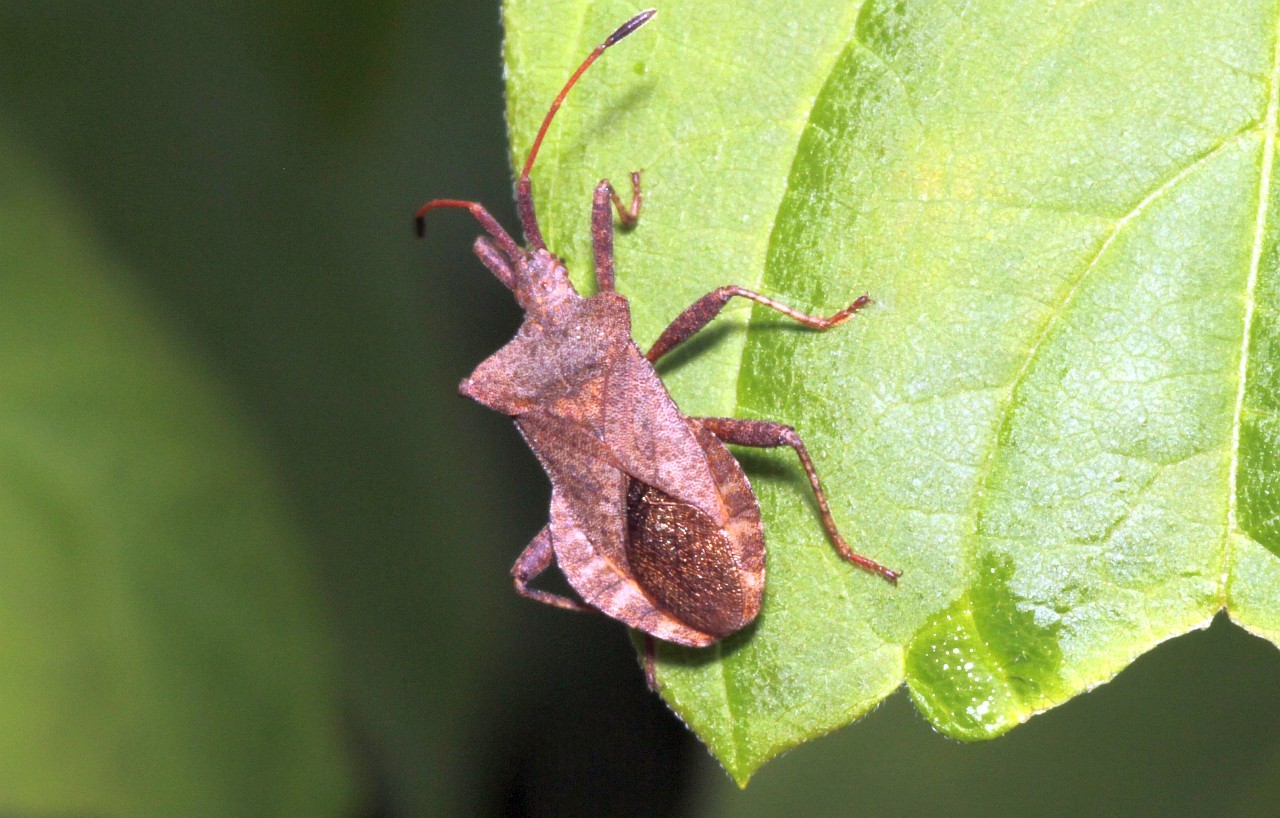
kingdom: Animalia
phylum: Arthropoda
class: Insecta
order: Hemiptera
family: Coreidae
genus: Coreus
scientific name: Coreus marginatus
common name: Dock bug
